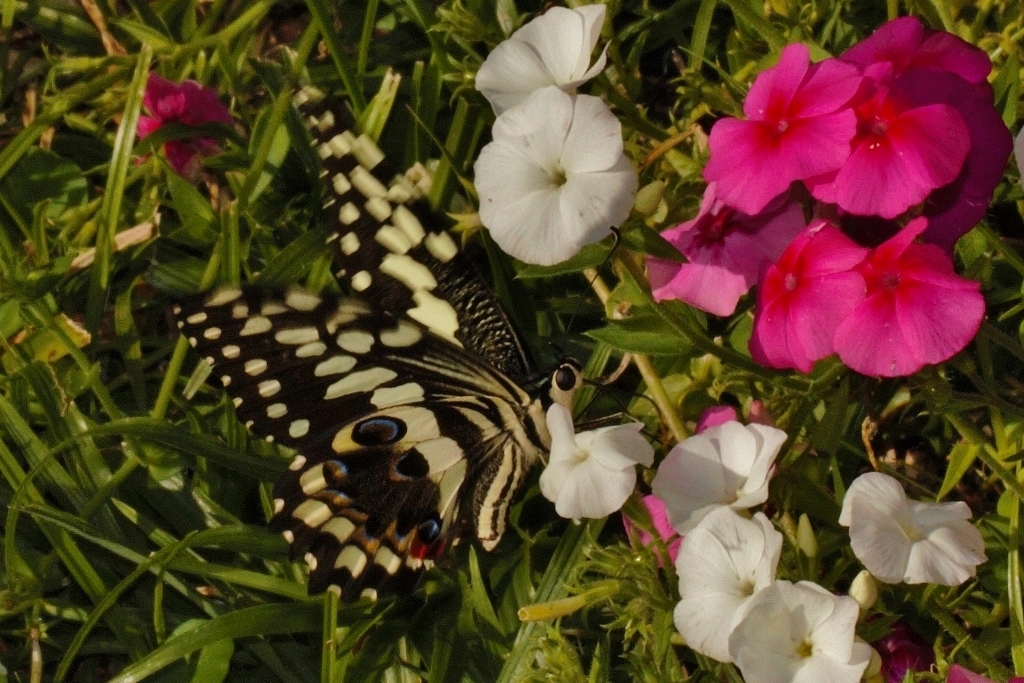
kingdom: Animalia
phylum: Arthropoda
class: Insecta
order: Lepidoptera
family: Papilionidae
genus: Papilio
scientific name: Papilio demodocus
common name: Christmas butterfly
